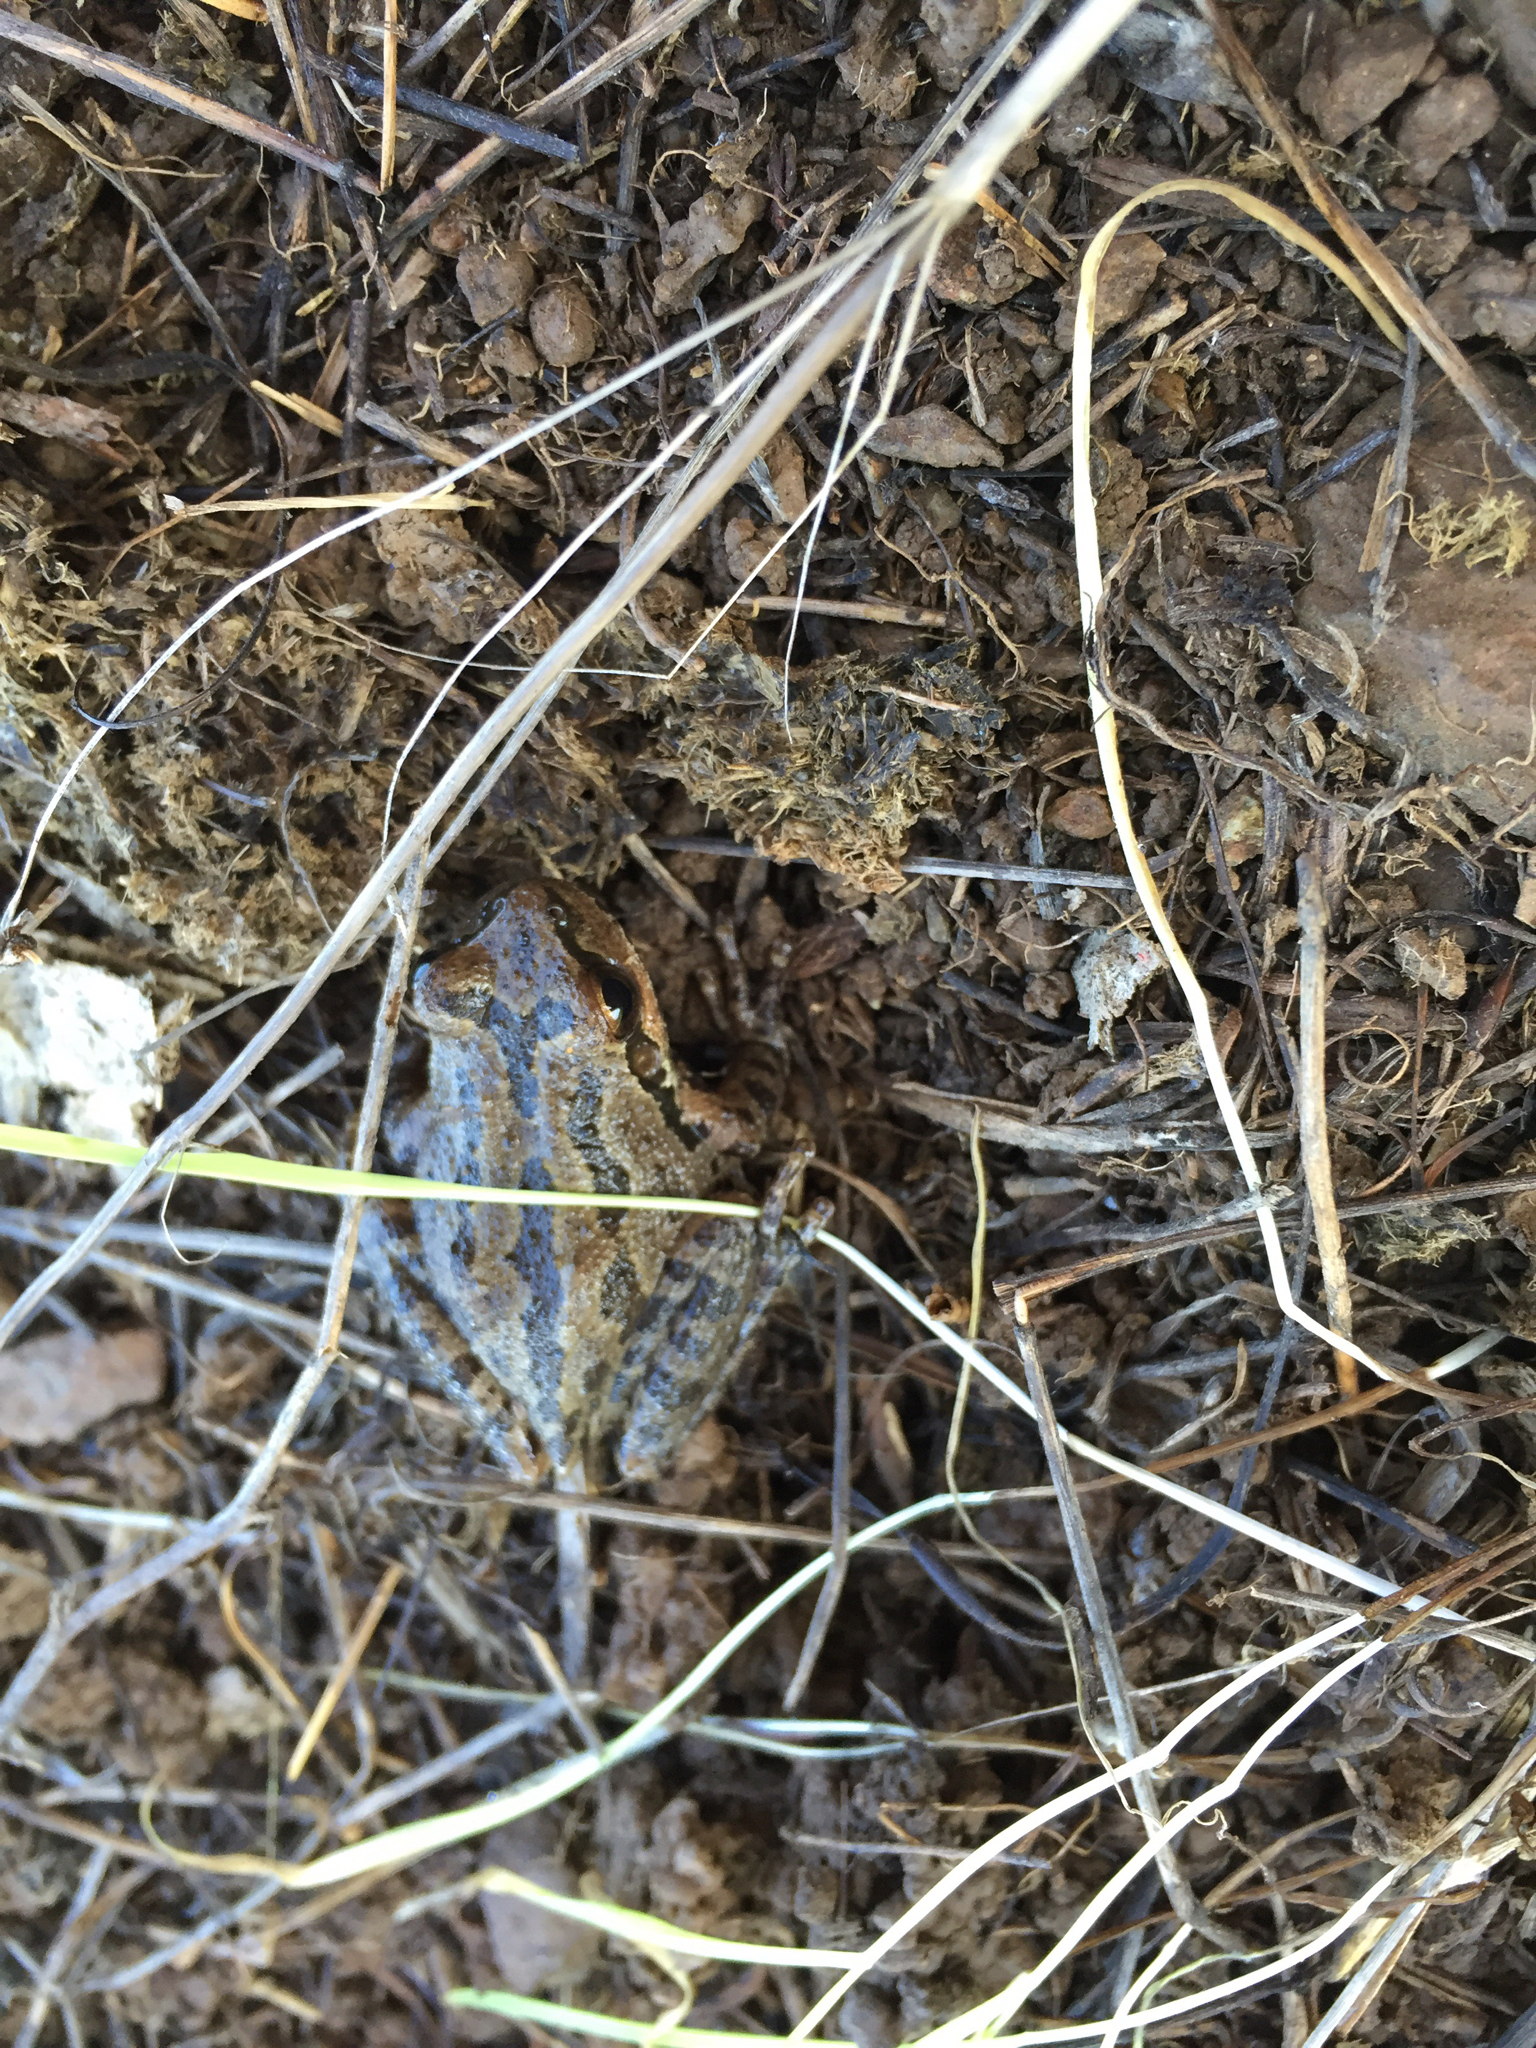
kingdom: Animalia
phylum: Chordata
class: Amphibia
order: Anura
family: Hylidae
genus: Pseudacris
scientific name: Pseudacris regilla
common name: Pacific chorus frog
